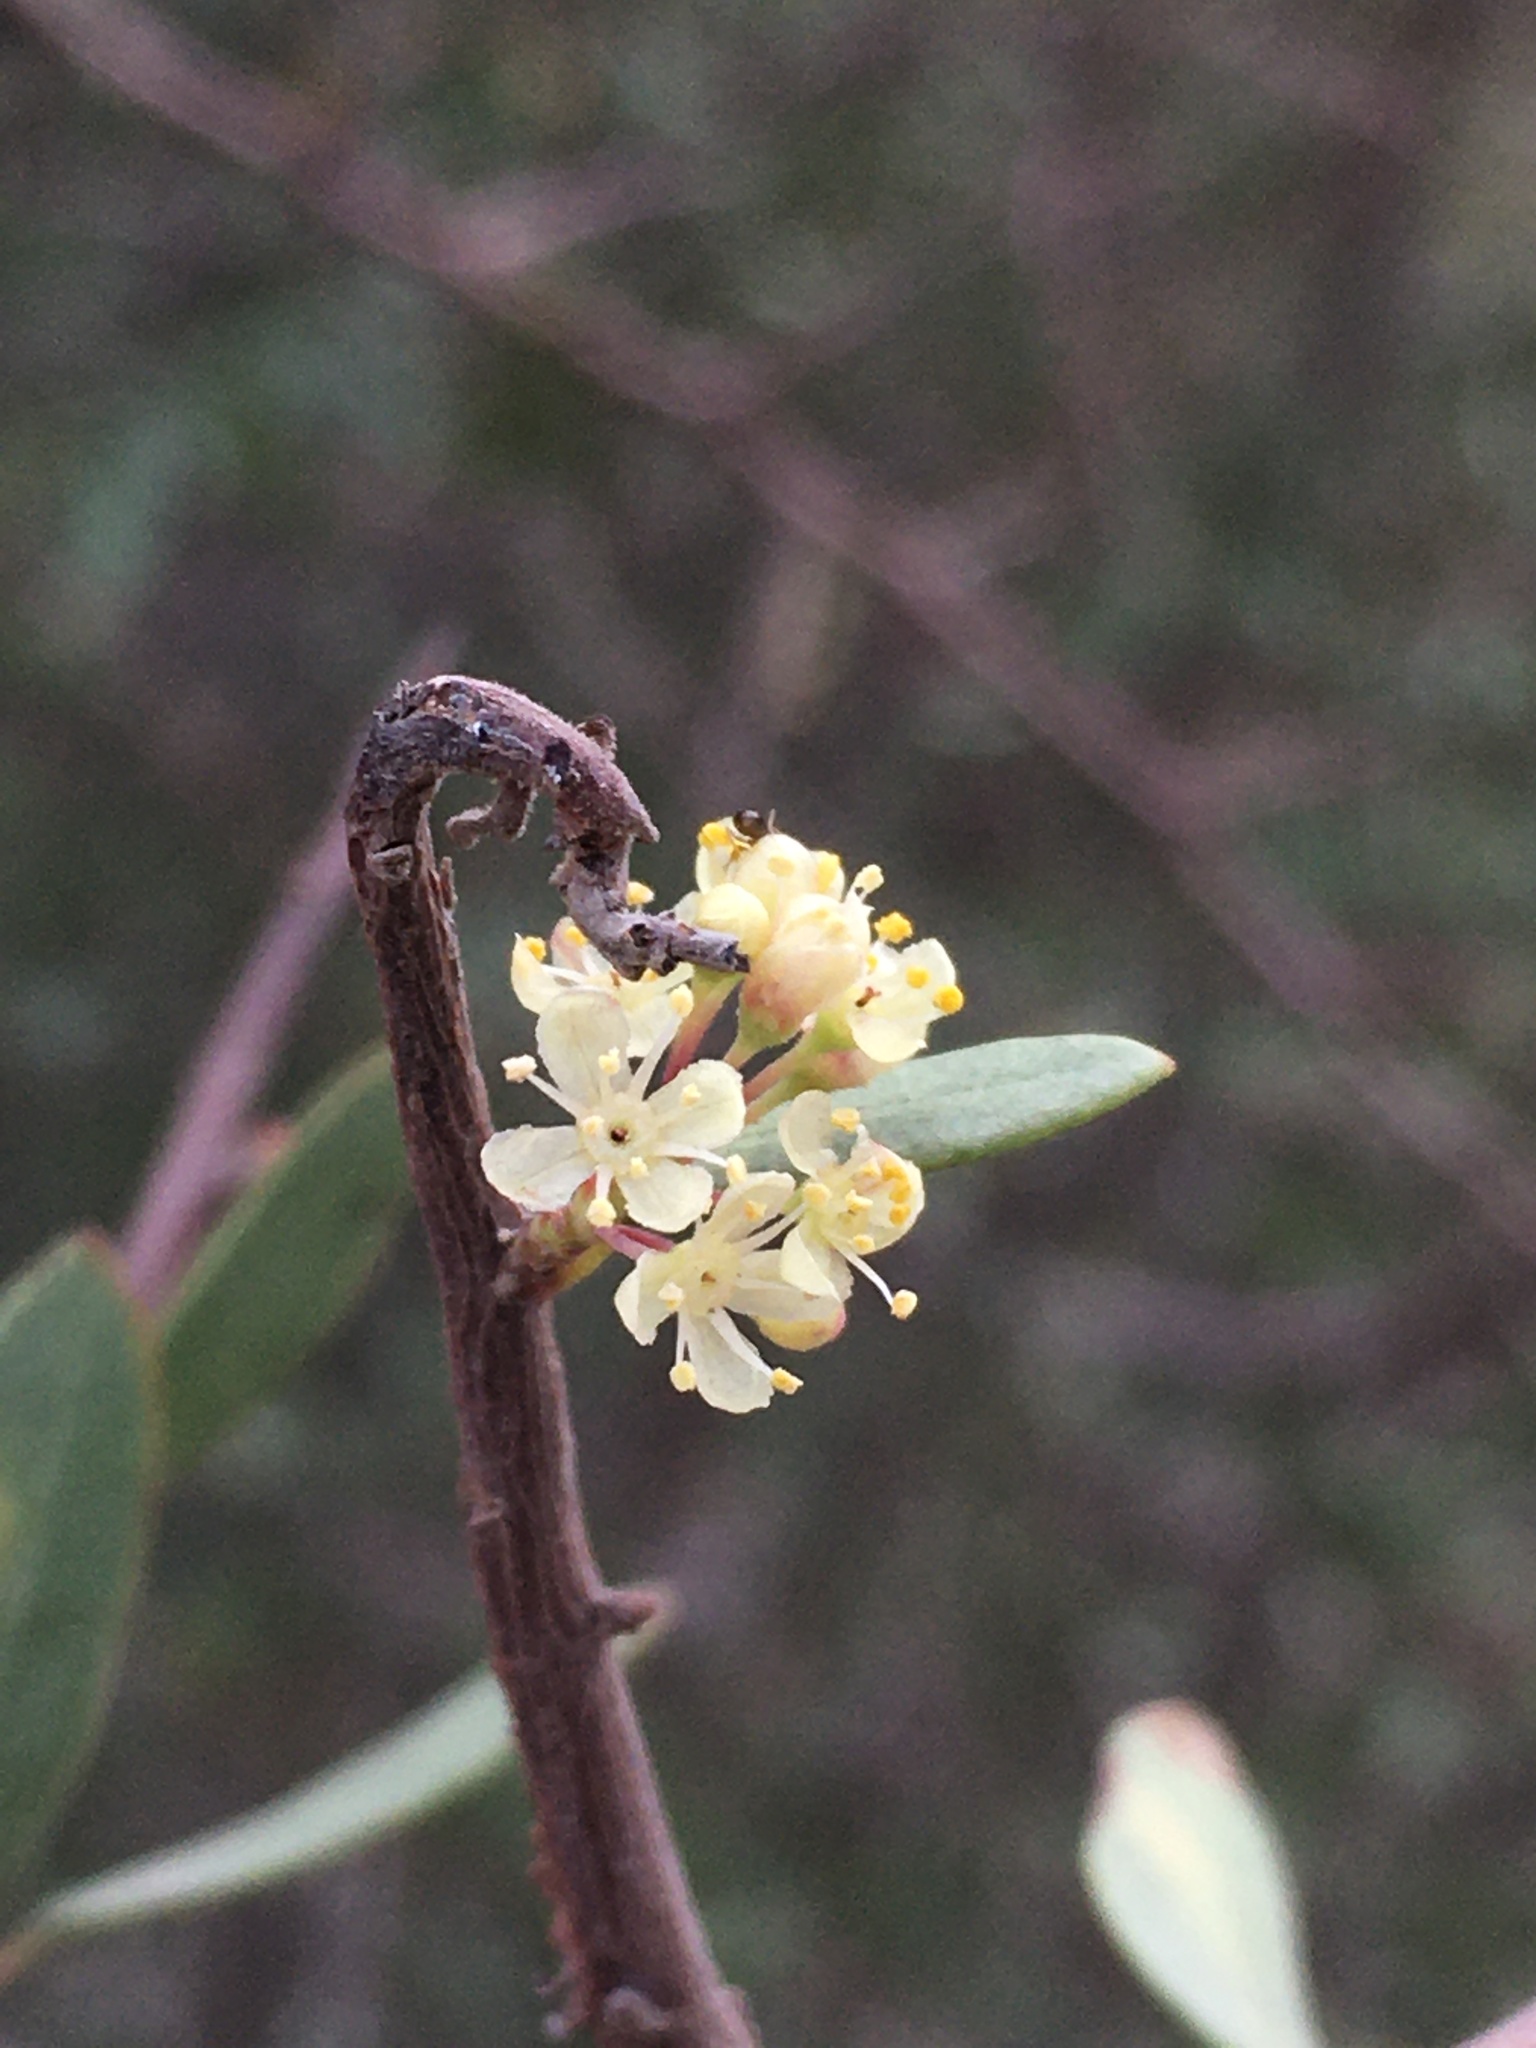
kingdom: Plantae
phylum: Tracheophyta
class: Magnoliopsida
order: Sapindales
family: Anacardiaceae
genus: Schinus
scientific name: Schinus polygama
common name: Hardee peppertree
